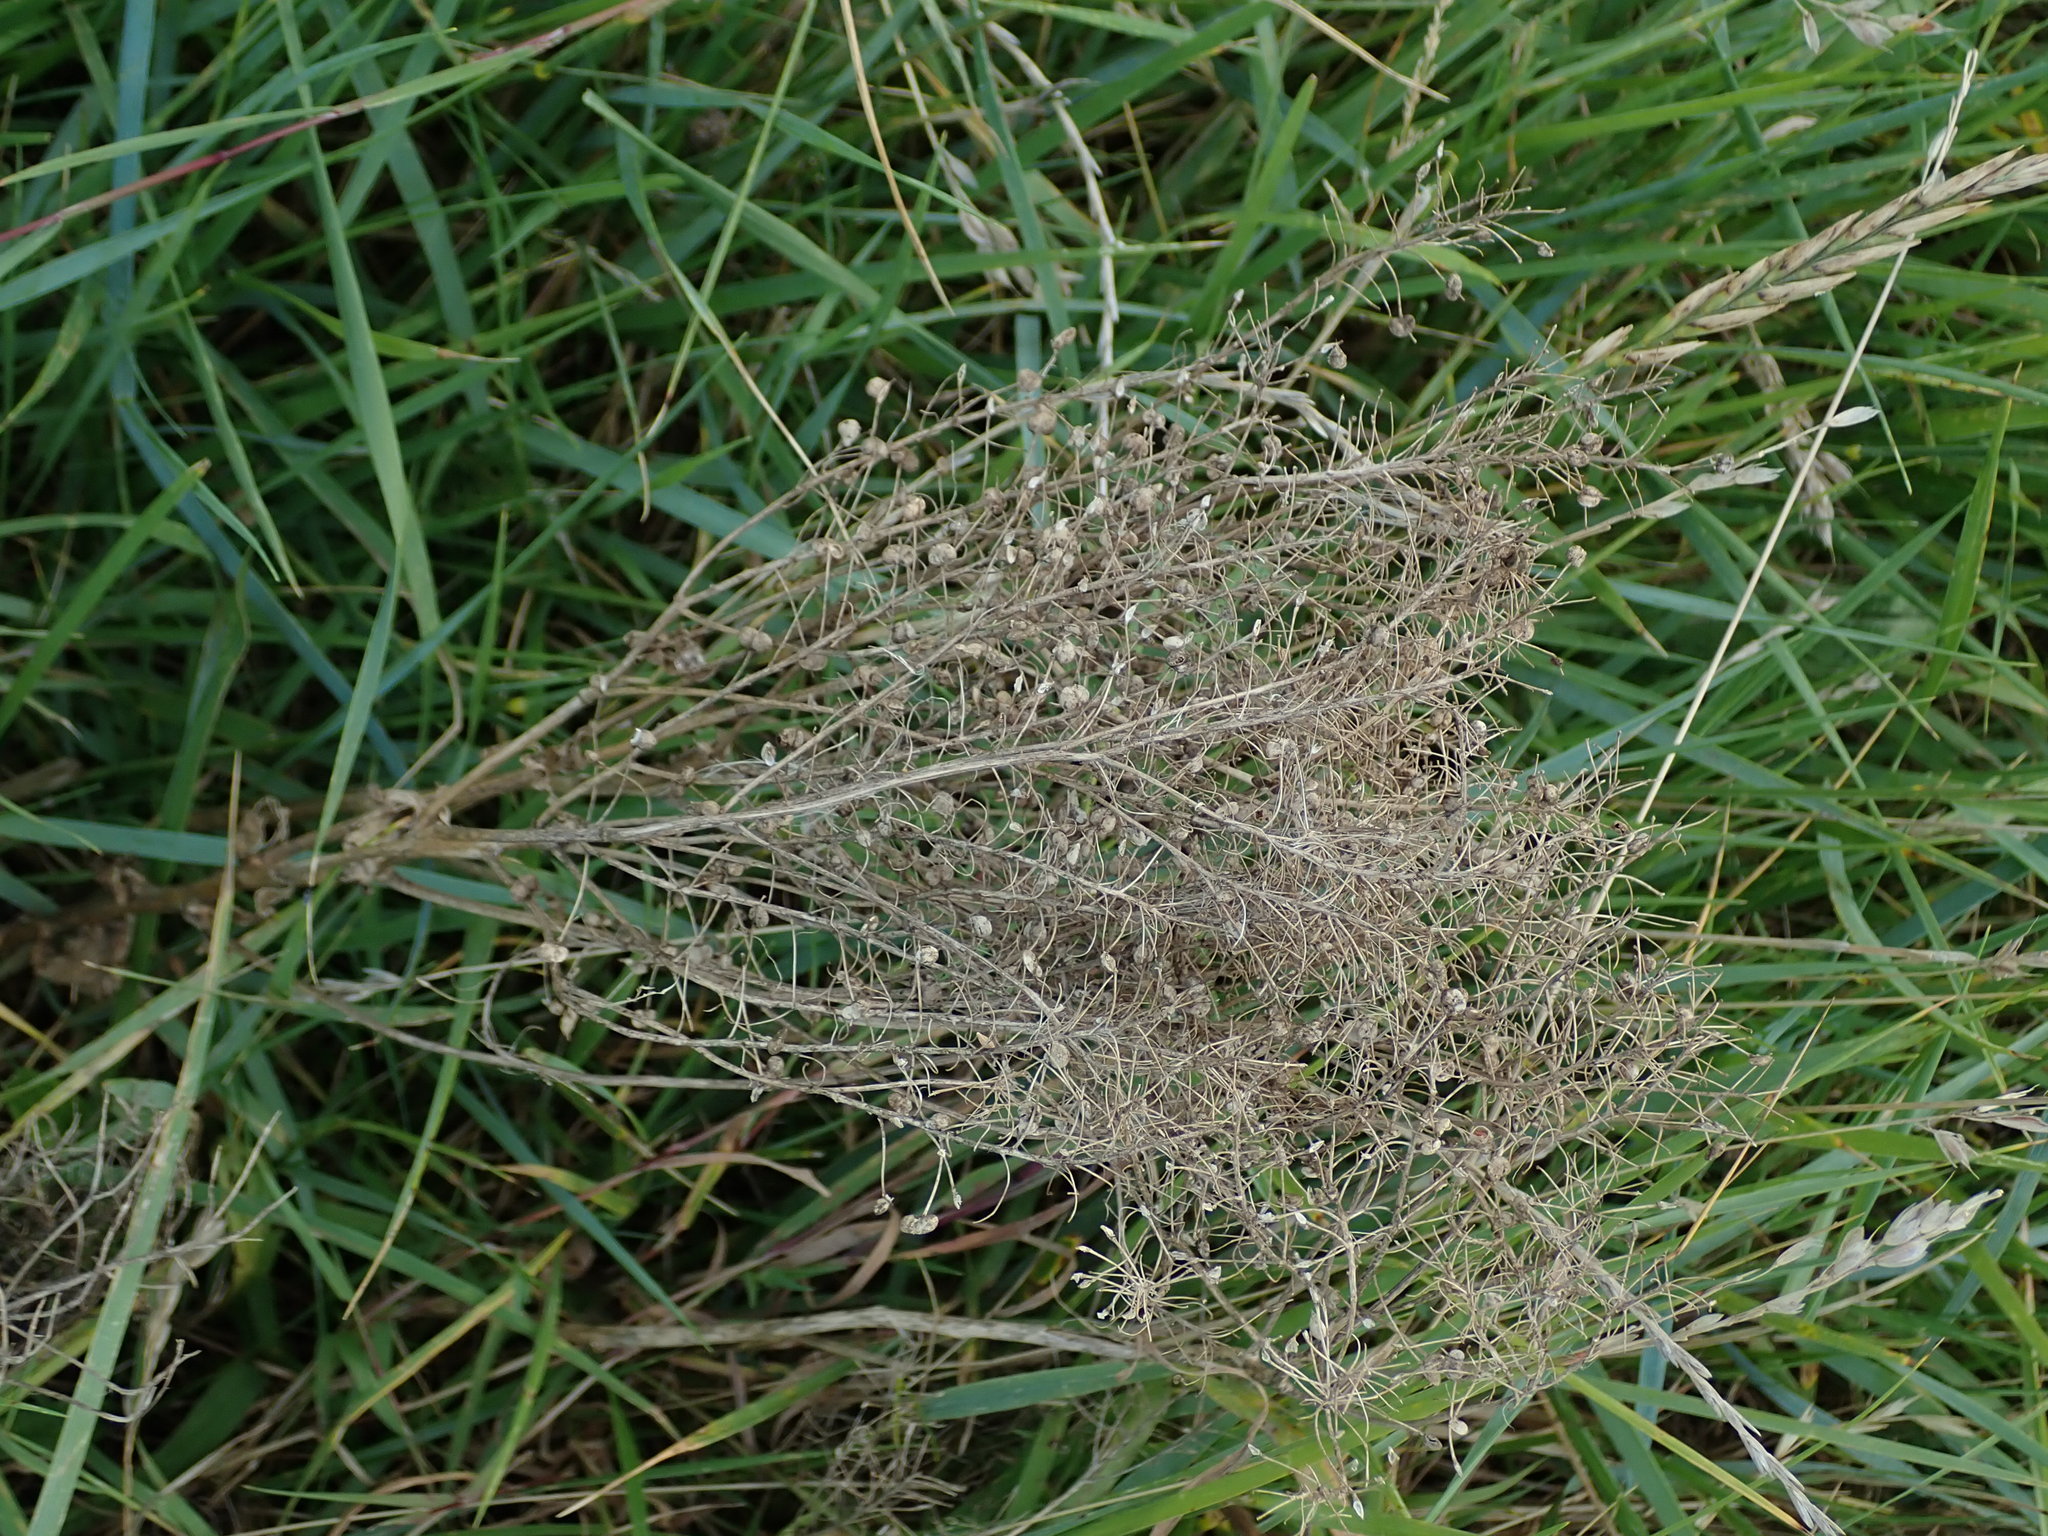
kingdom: Plantae
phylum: Tracheophyta
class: Magnoliopsida
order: Brassicales
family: Brassicaceae
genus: Lepidium
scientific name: Lepidium draba
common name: Hoary cress
